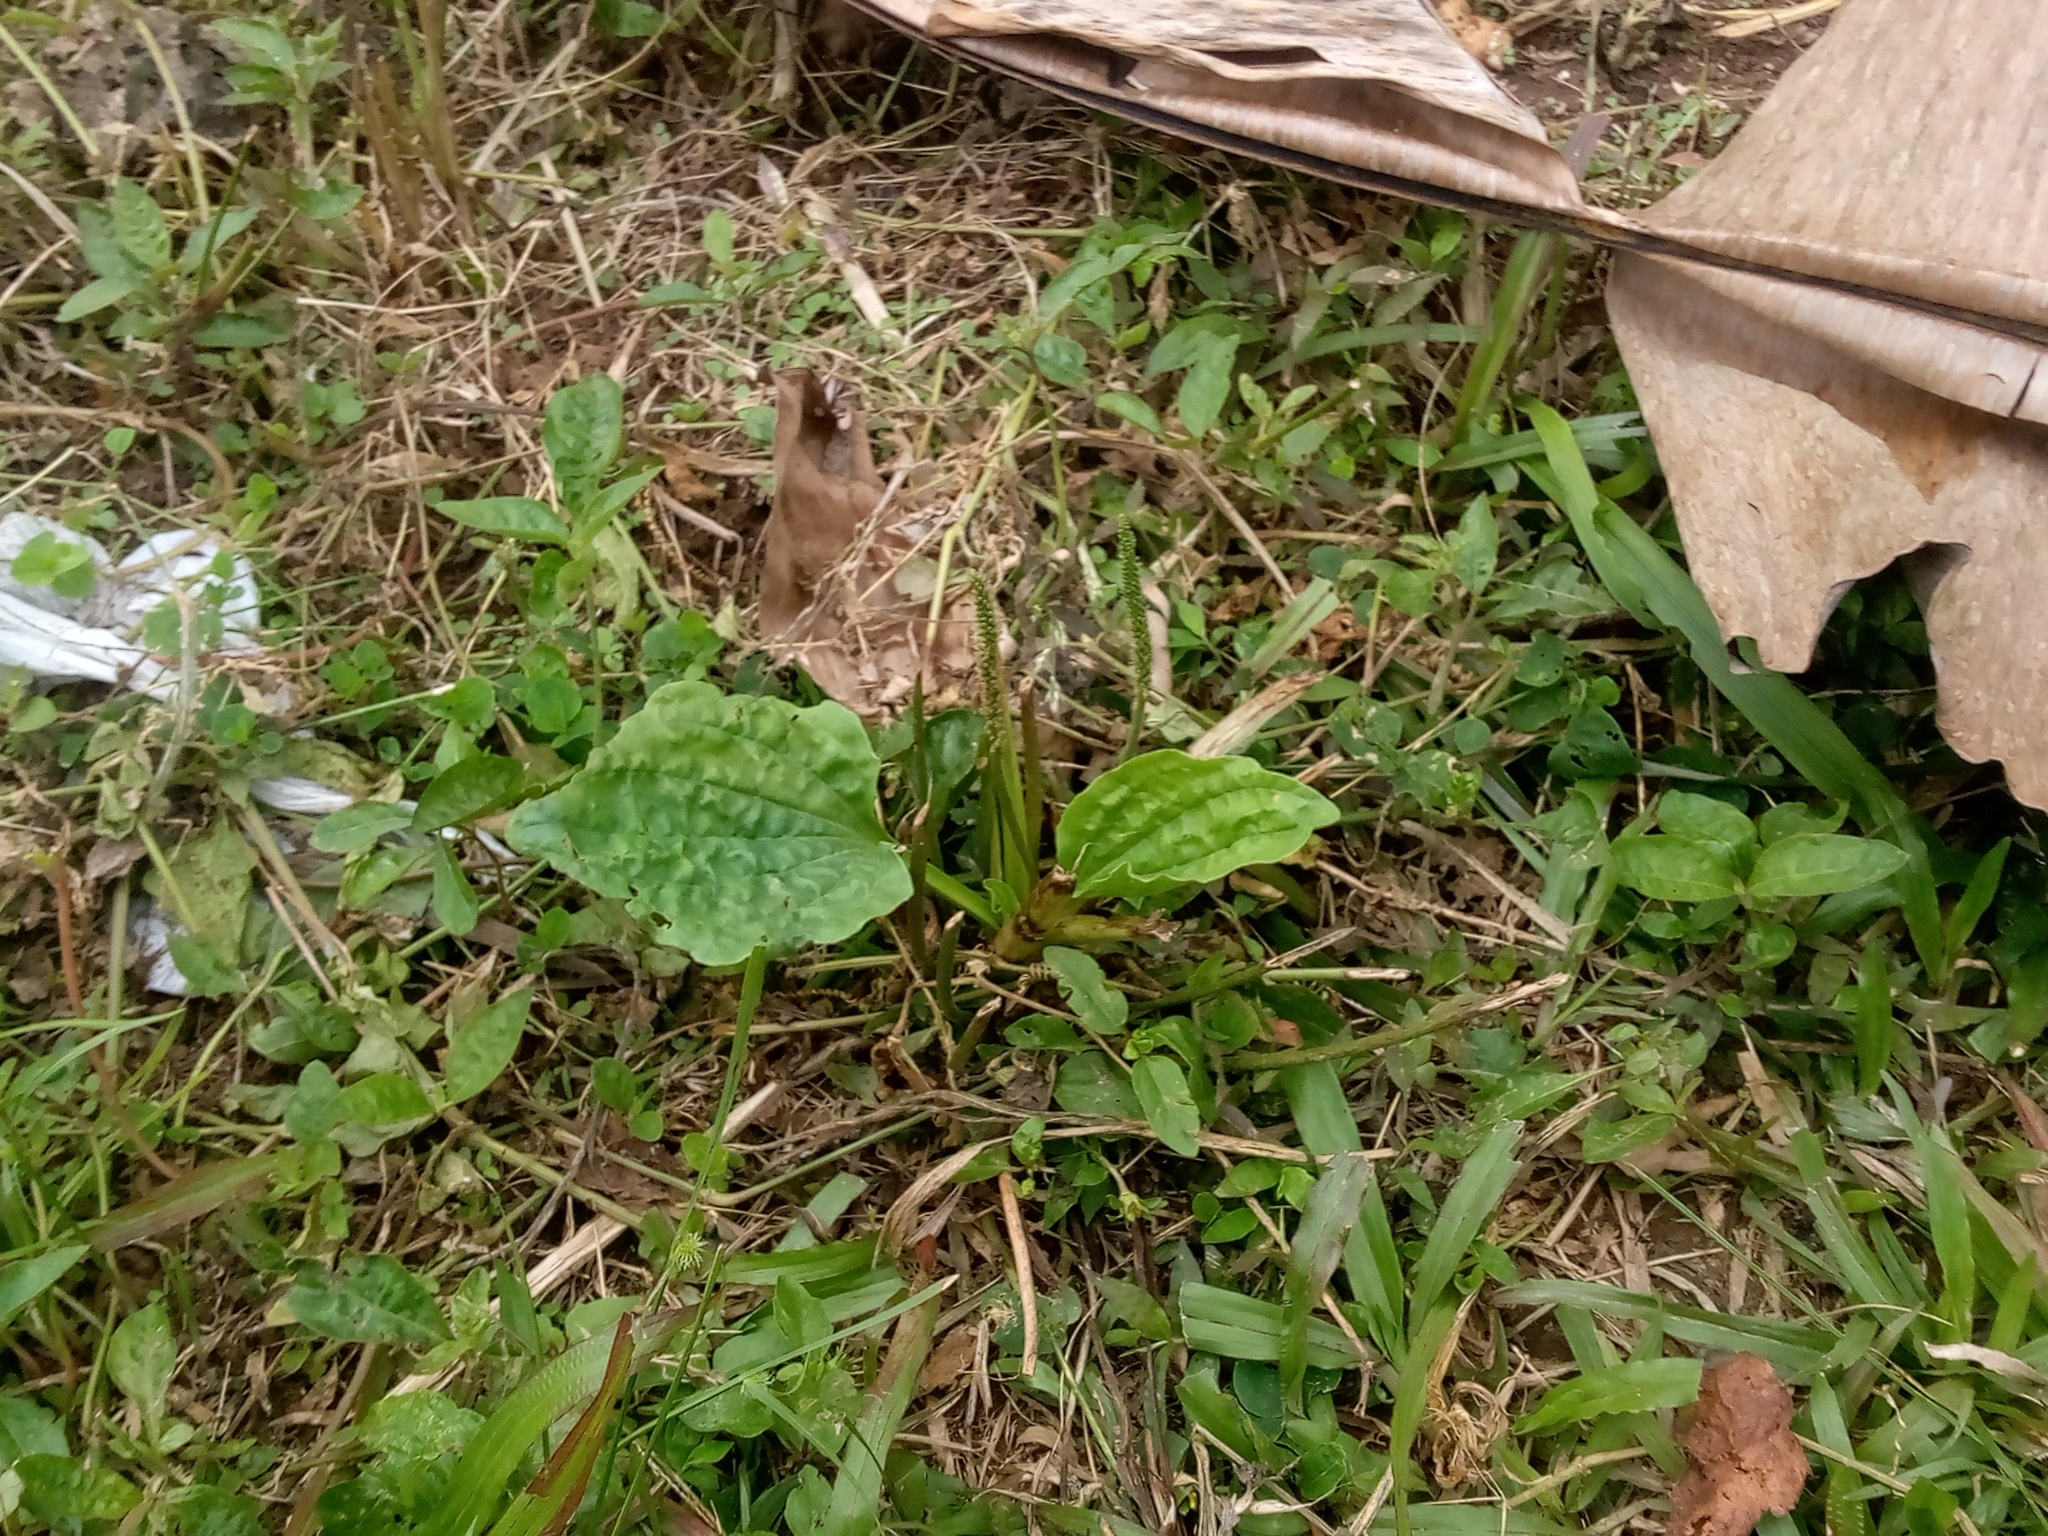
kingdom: Plantae
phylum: Tracheophyta
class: Magnoliopsida
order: Lamiales
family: Plantaginaceae
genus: Plantago
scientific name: Plantago major
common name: Common plantain
